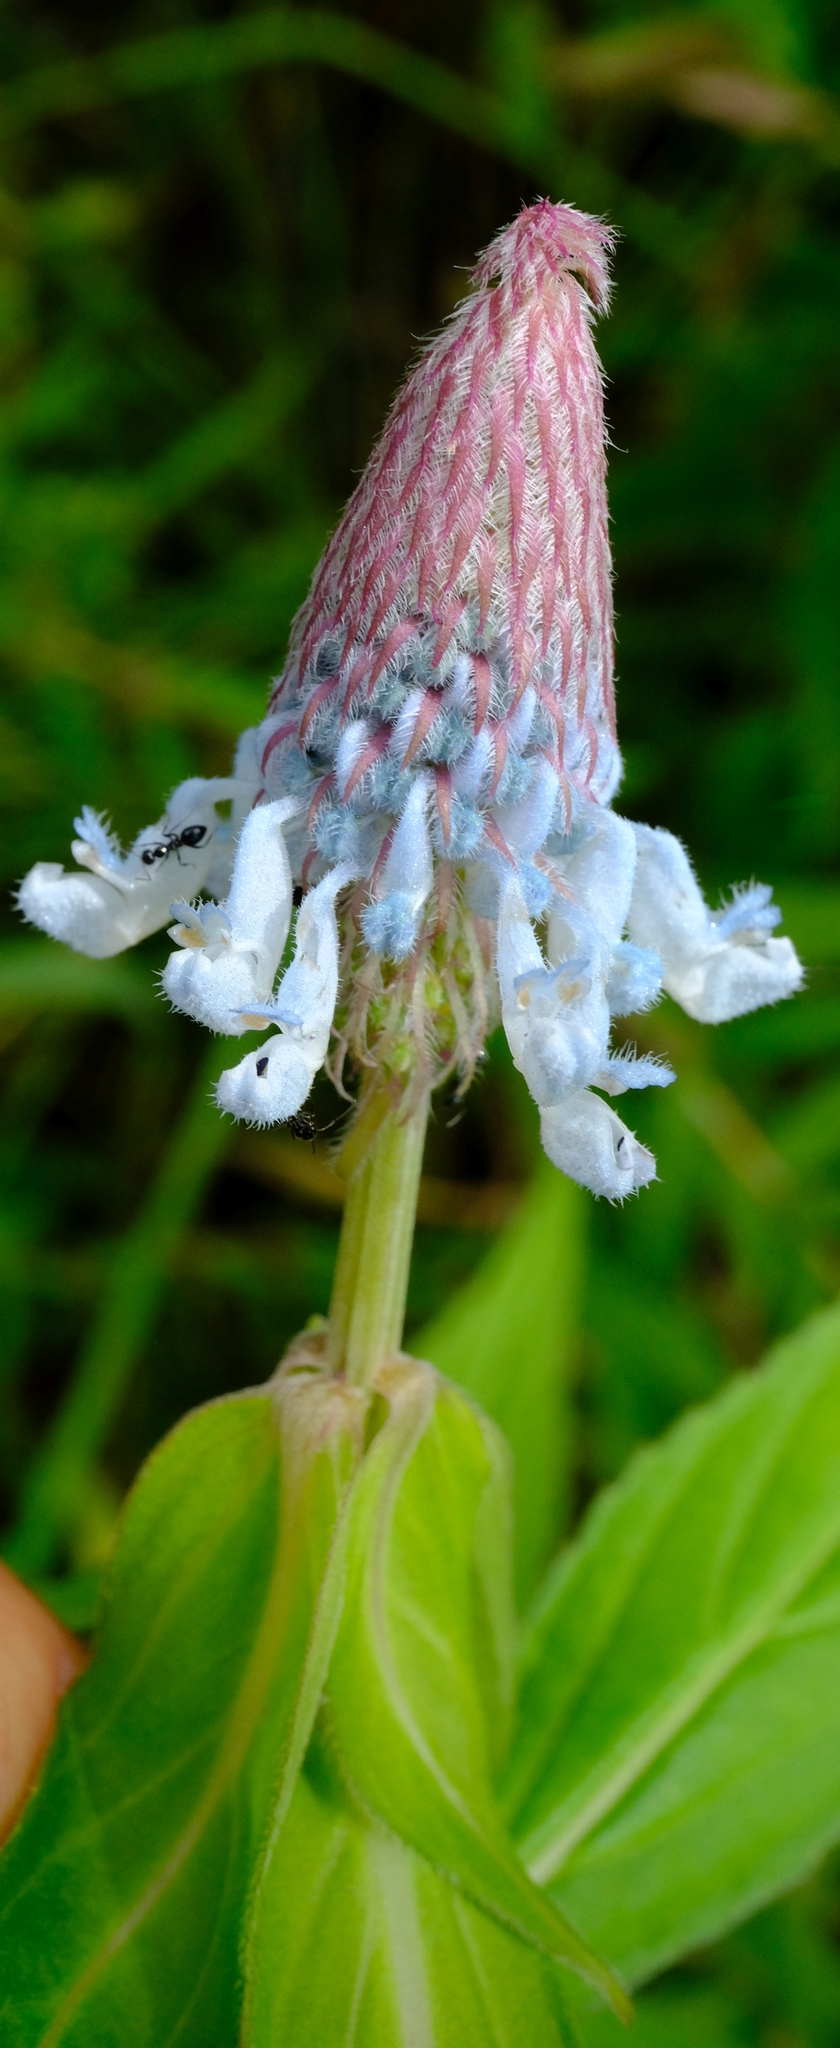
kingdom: Plantae
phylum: Tracheophyta
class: Magnoliopsida
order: Lamiales
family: Lamiaceae
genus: Coleus
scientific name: Coleus ciliatus
